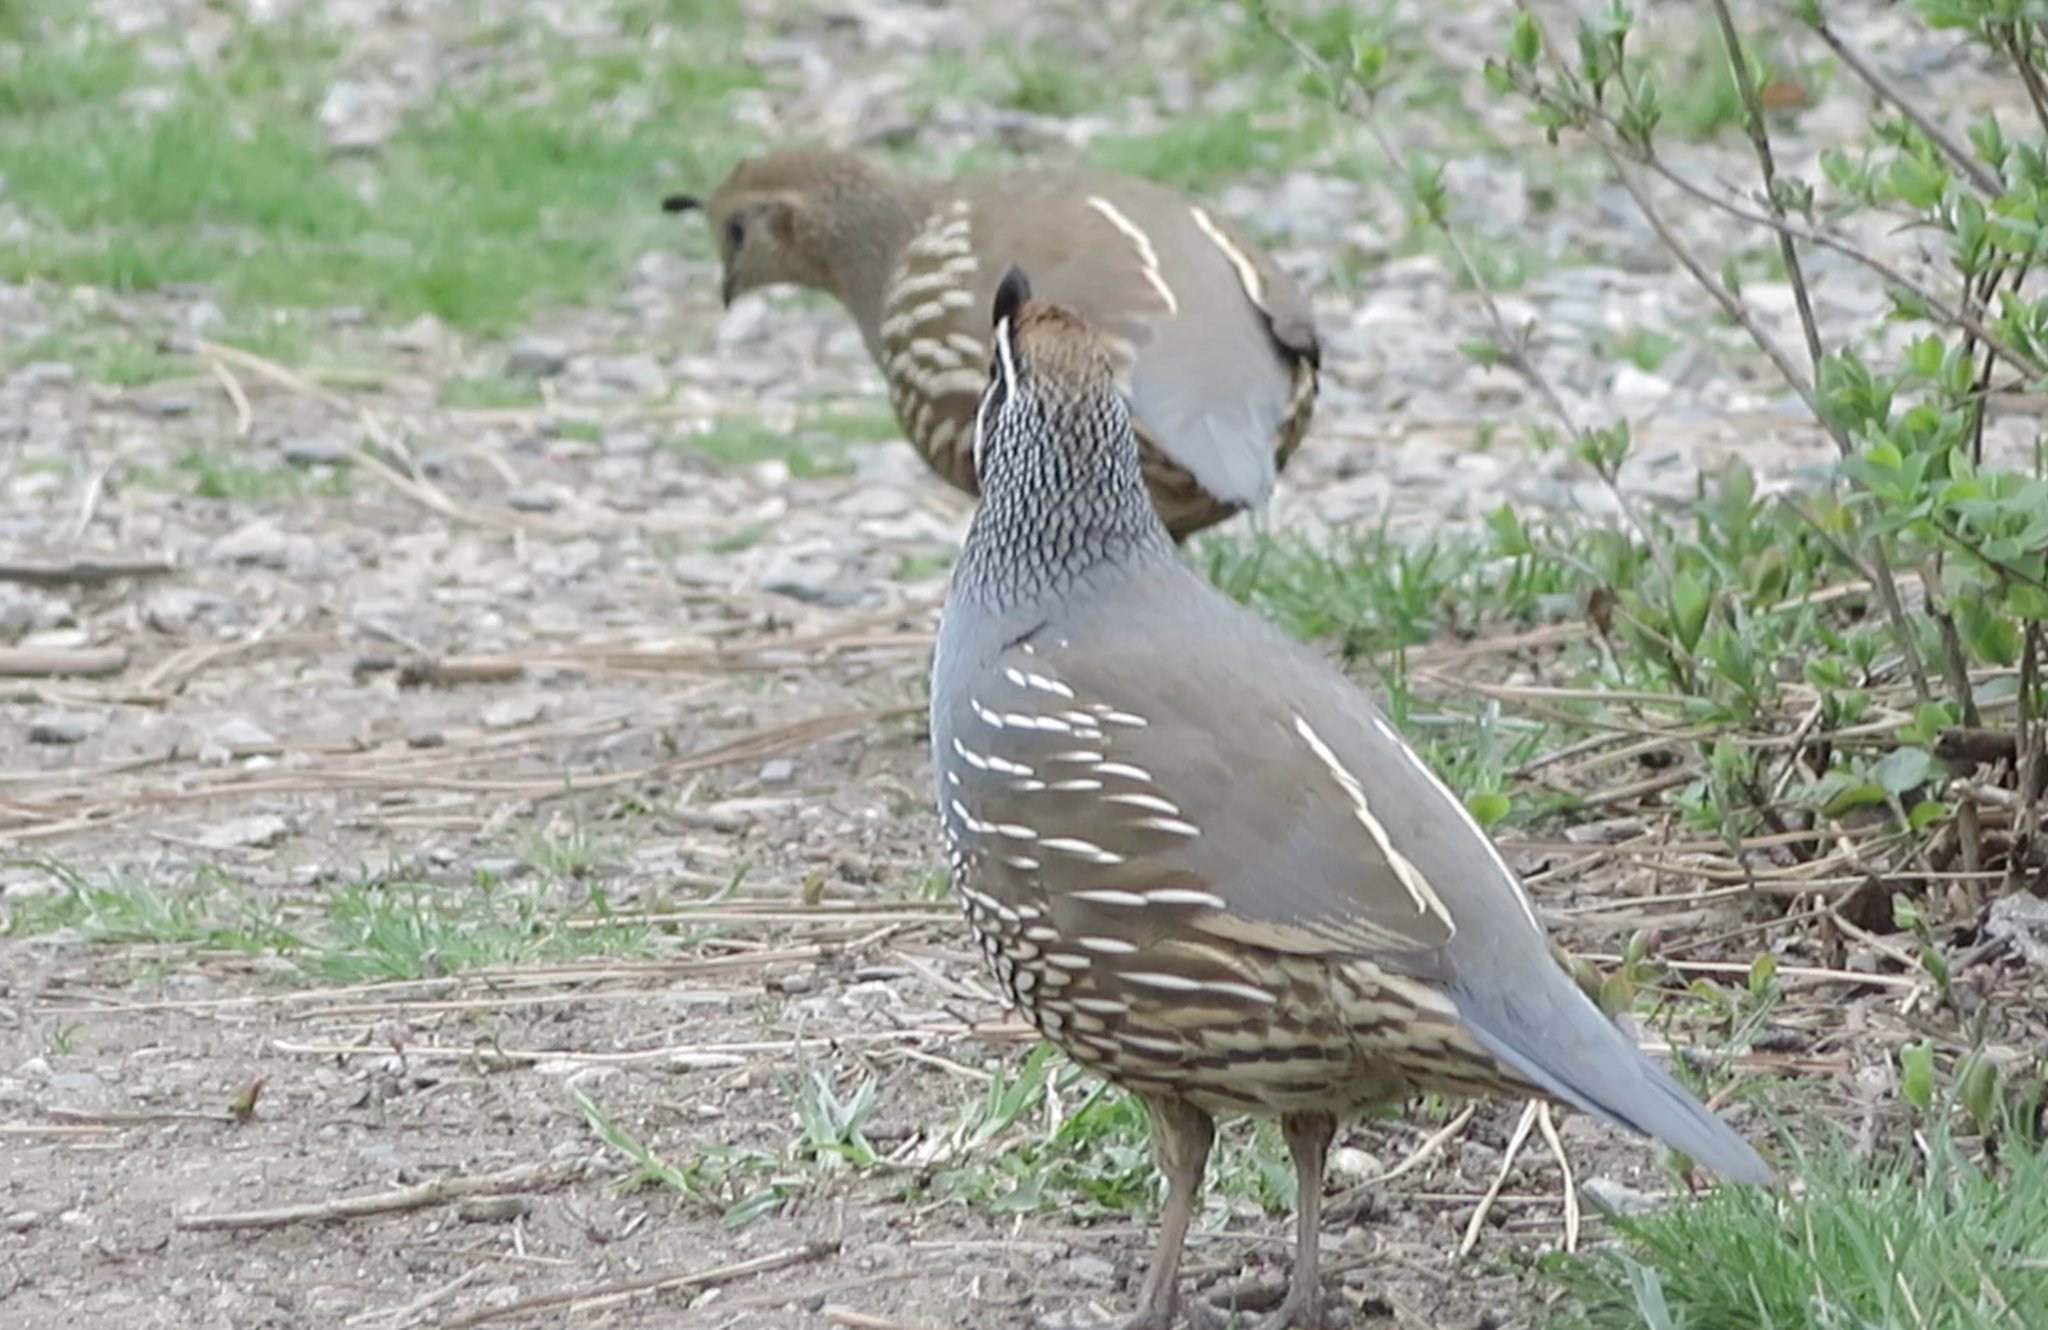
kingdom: Animalia
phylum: Chordata
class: Aves
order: Galliformes
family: Odontophoridae
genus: Callipepla
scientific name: Callipepla californica
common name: California quail
